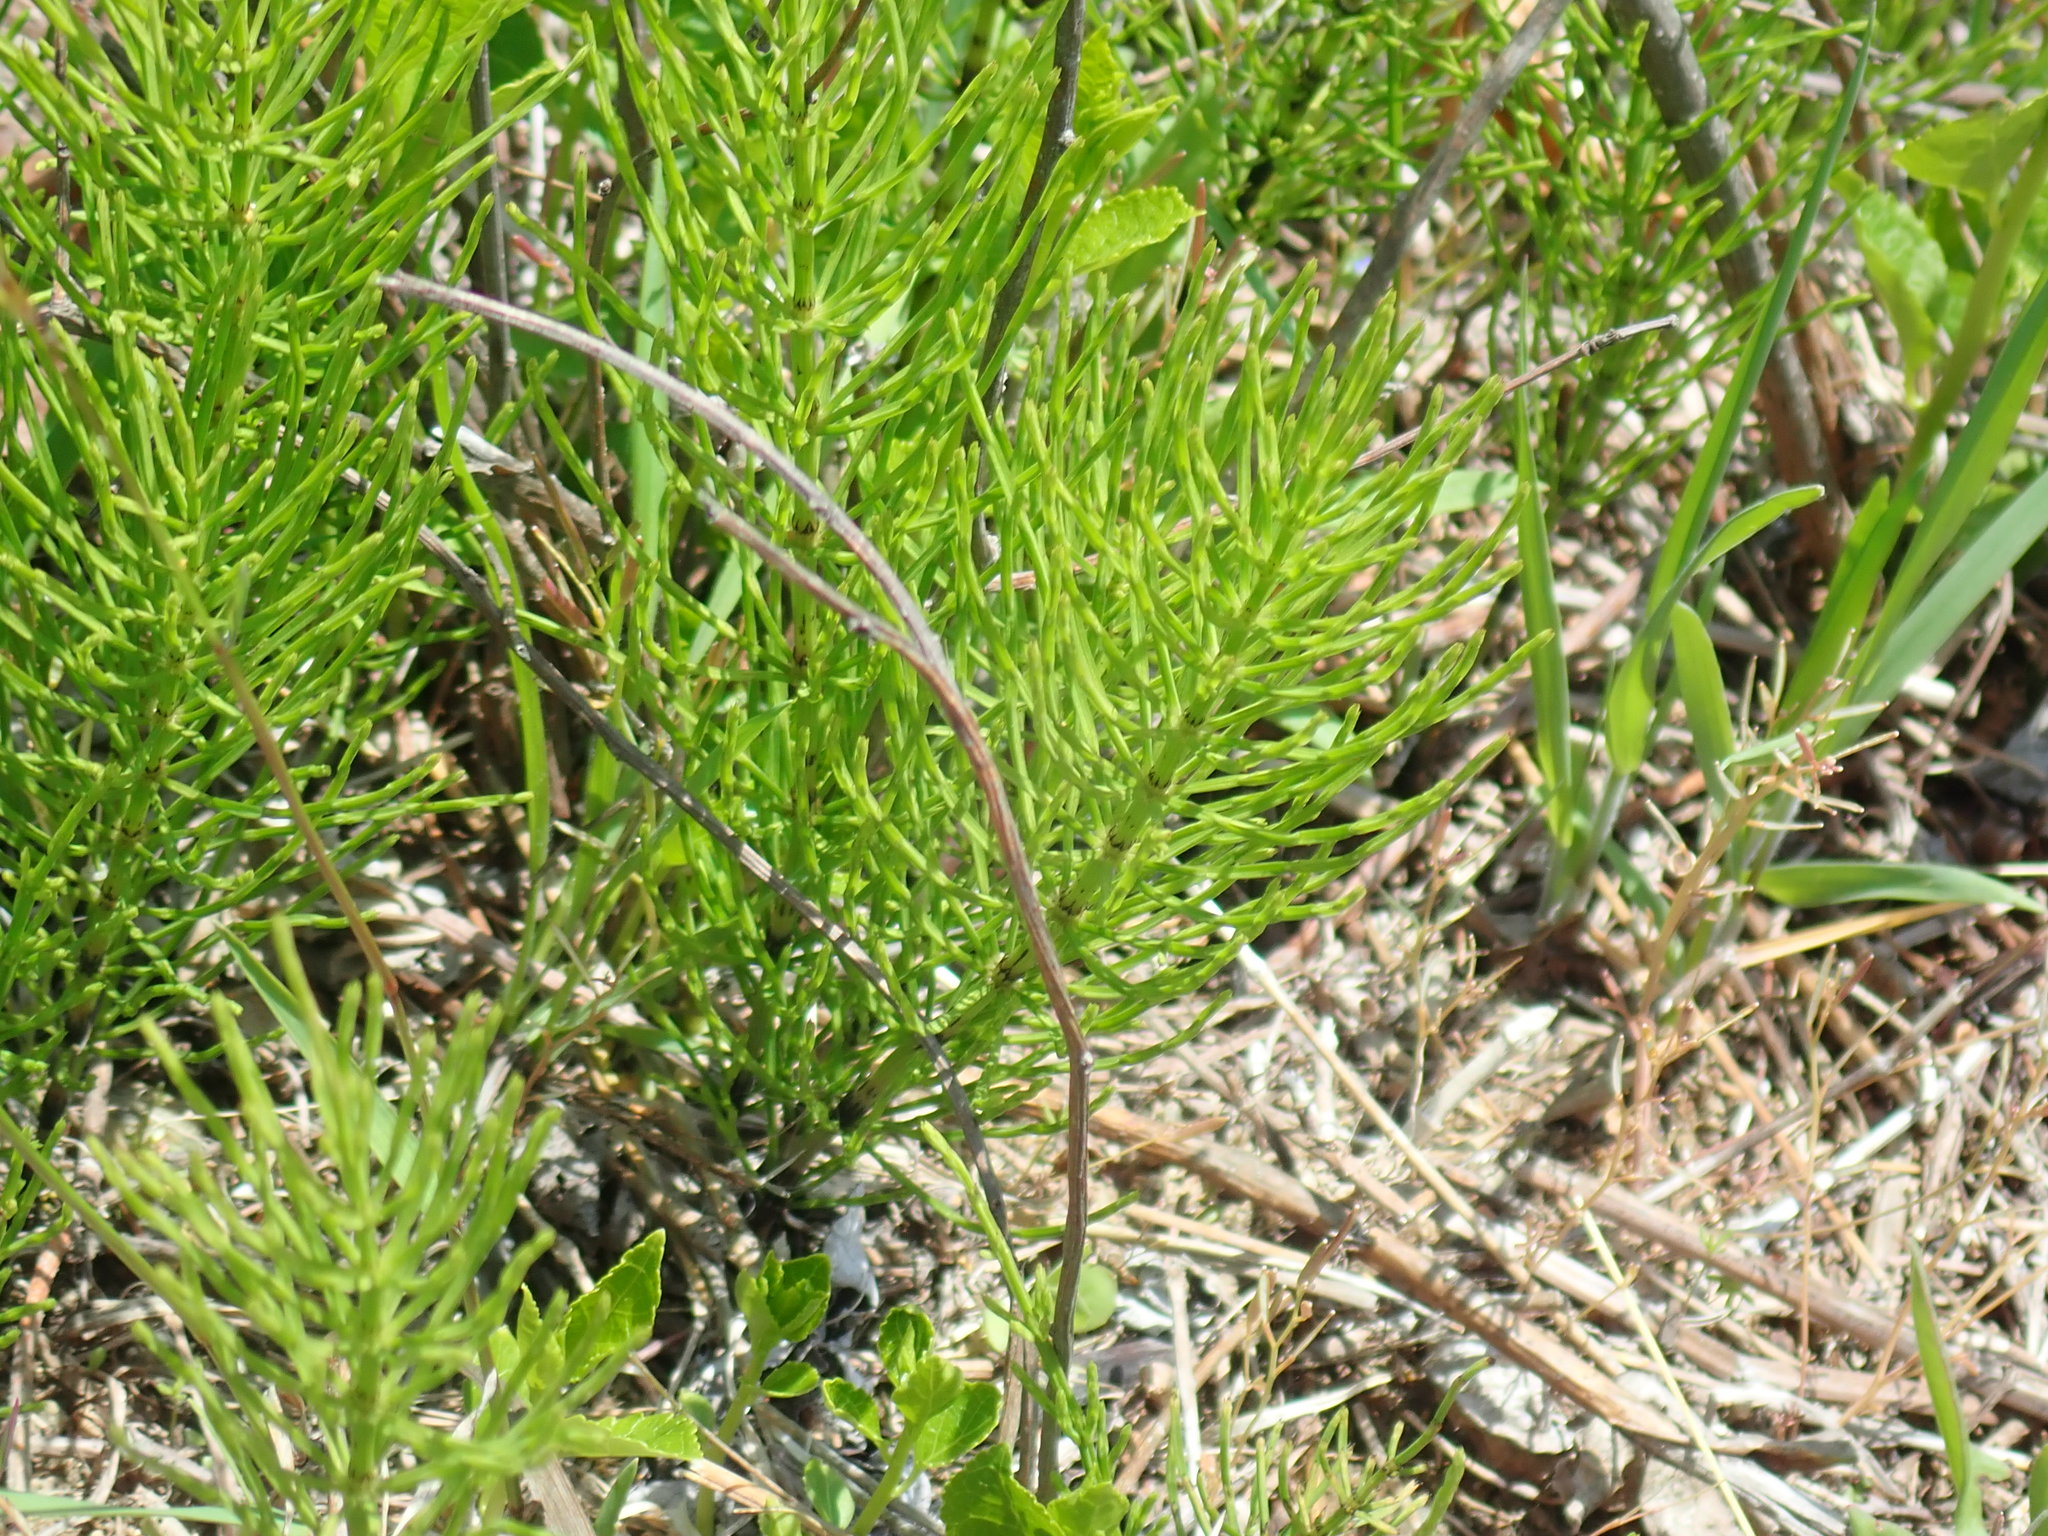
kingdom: Plantae
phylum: Tracheophyta
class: Polypodiopsida
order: Equisetales
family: Equisetaceae
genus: Equisetum
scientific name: Equisetum arvense
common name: Field horsetail
